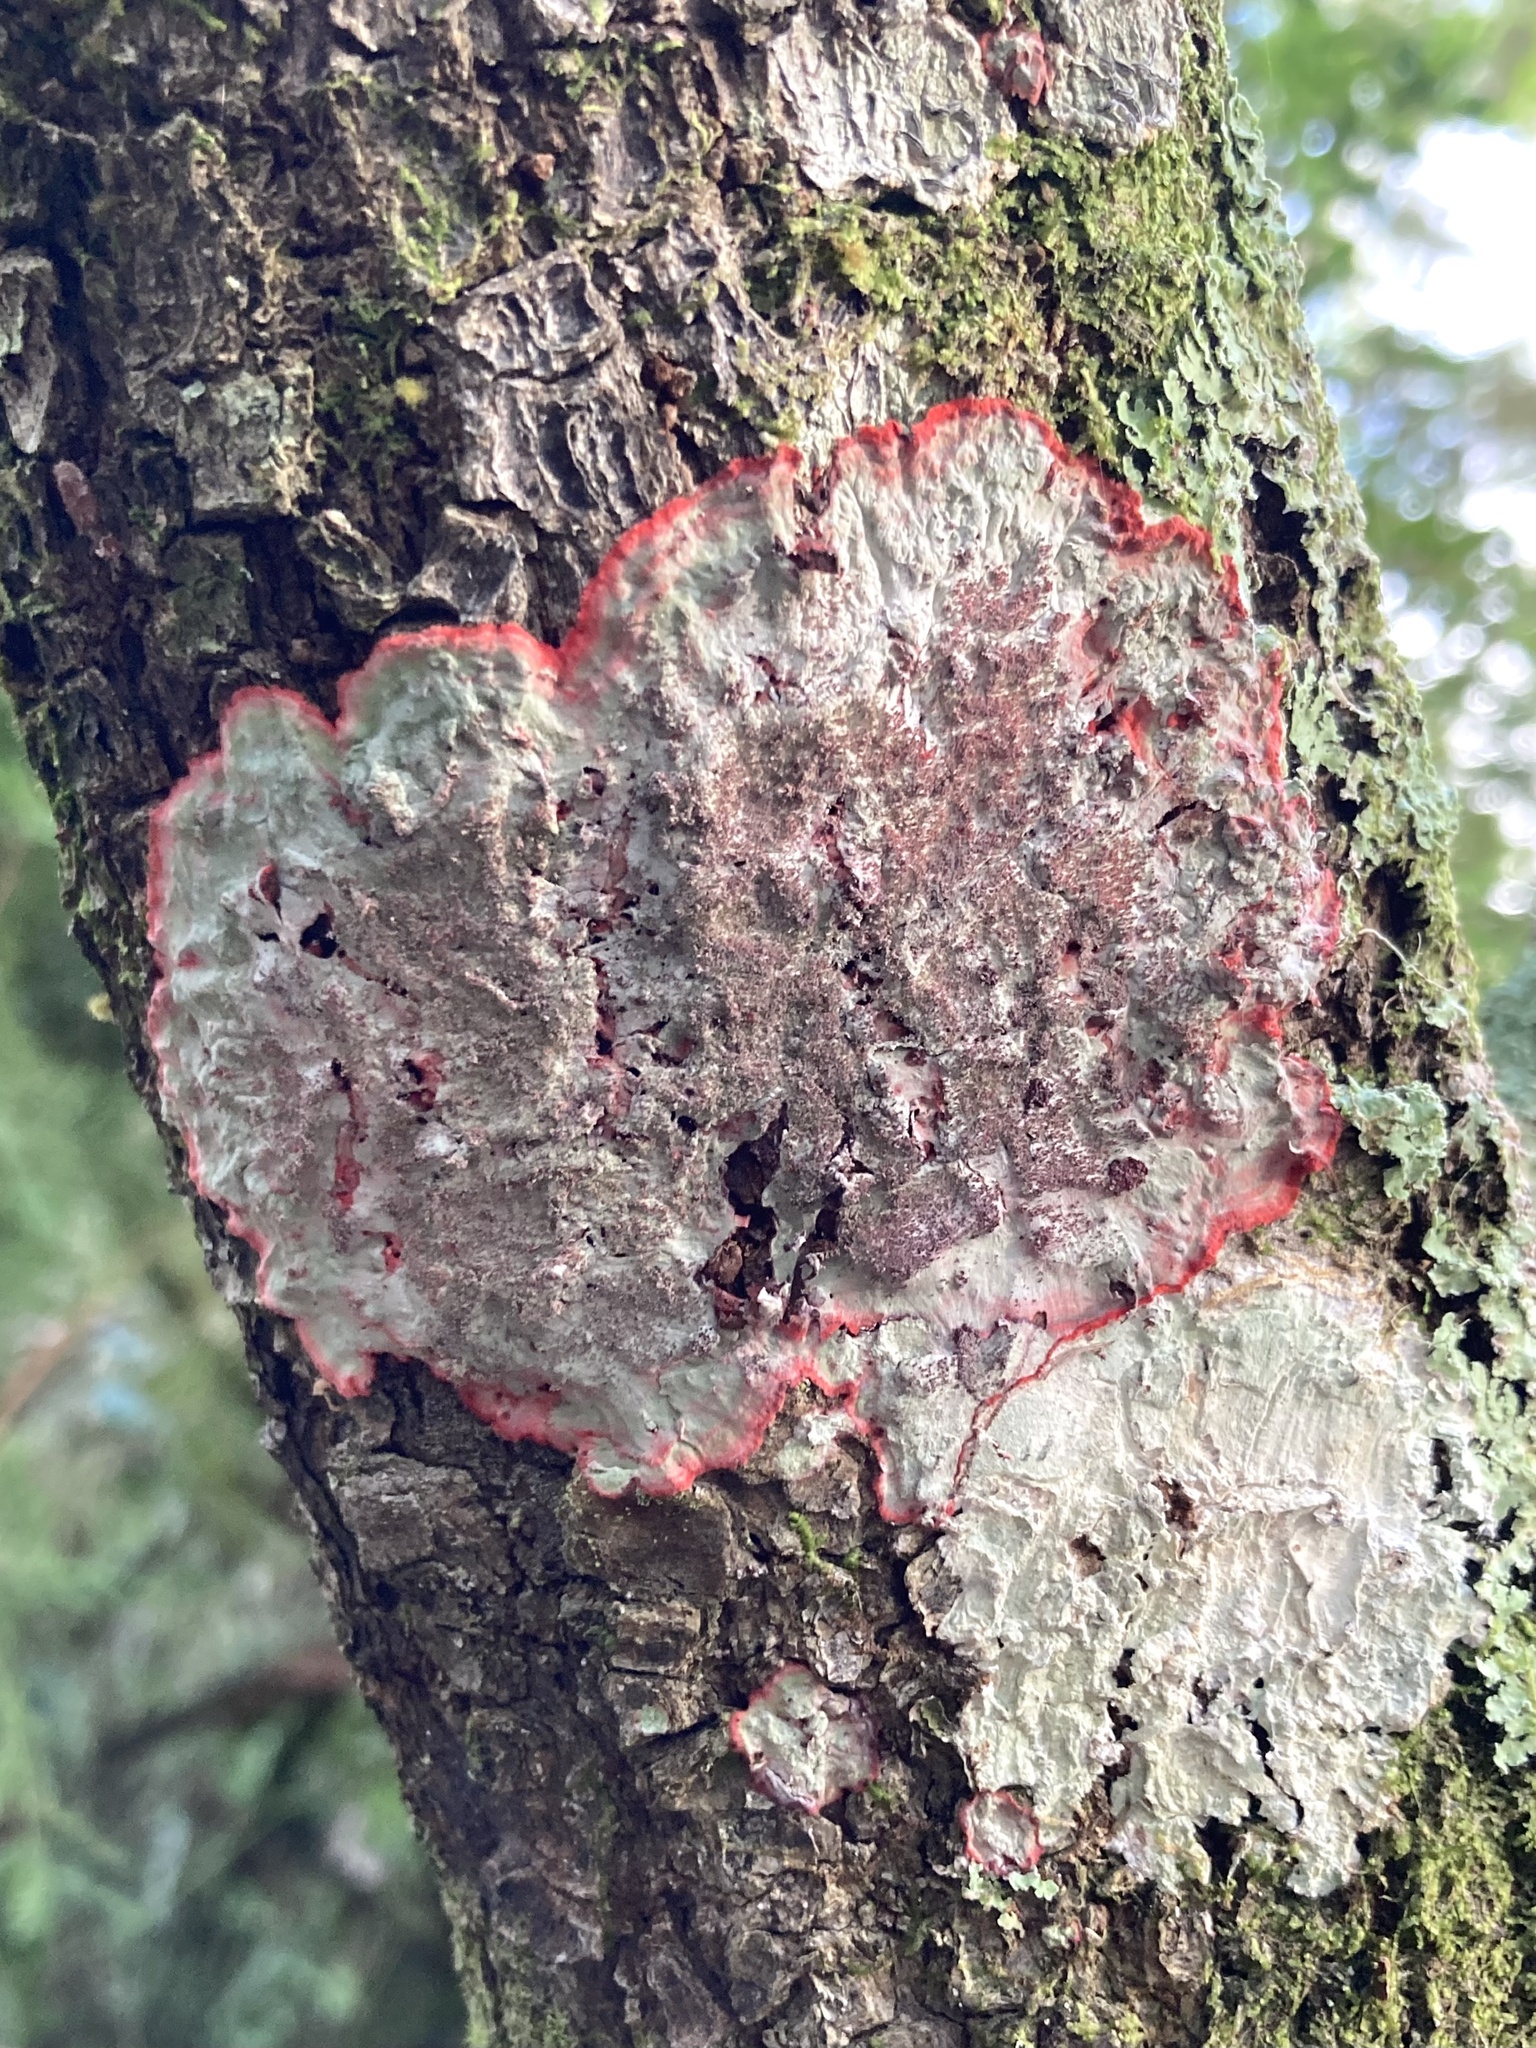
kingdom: Fungi
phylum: Ascomycota
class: Arthoniomycetes
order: Arthoniales
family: Arthoniaceae
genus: Herpothallon
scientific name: Herpothallon rubrocinctum
